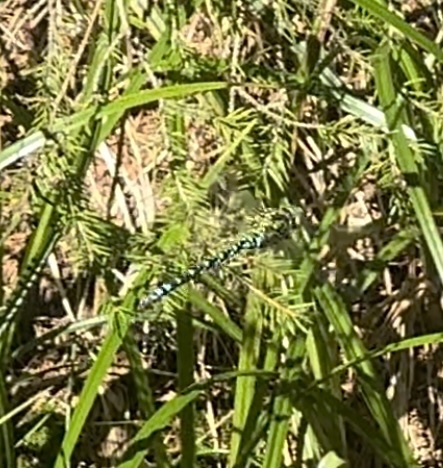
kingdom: Animalia
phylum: Arthropoda
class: Insecta
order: Odonata
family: Aeshnidae
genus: Aeshna
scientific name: Aeshna cyanea
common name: Southern hawker
